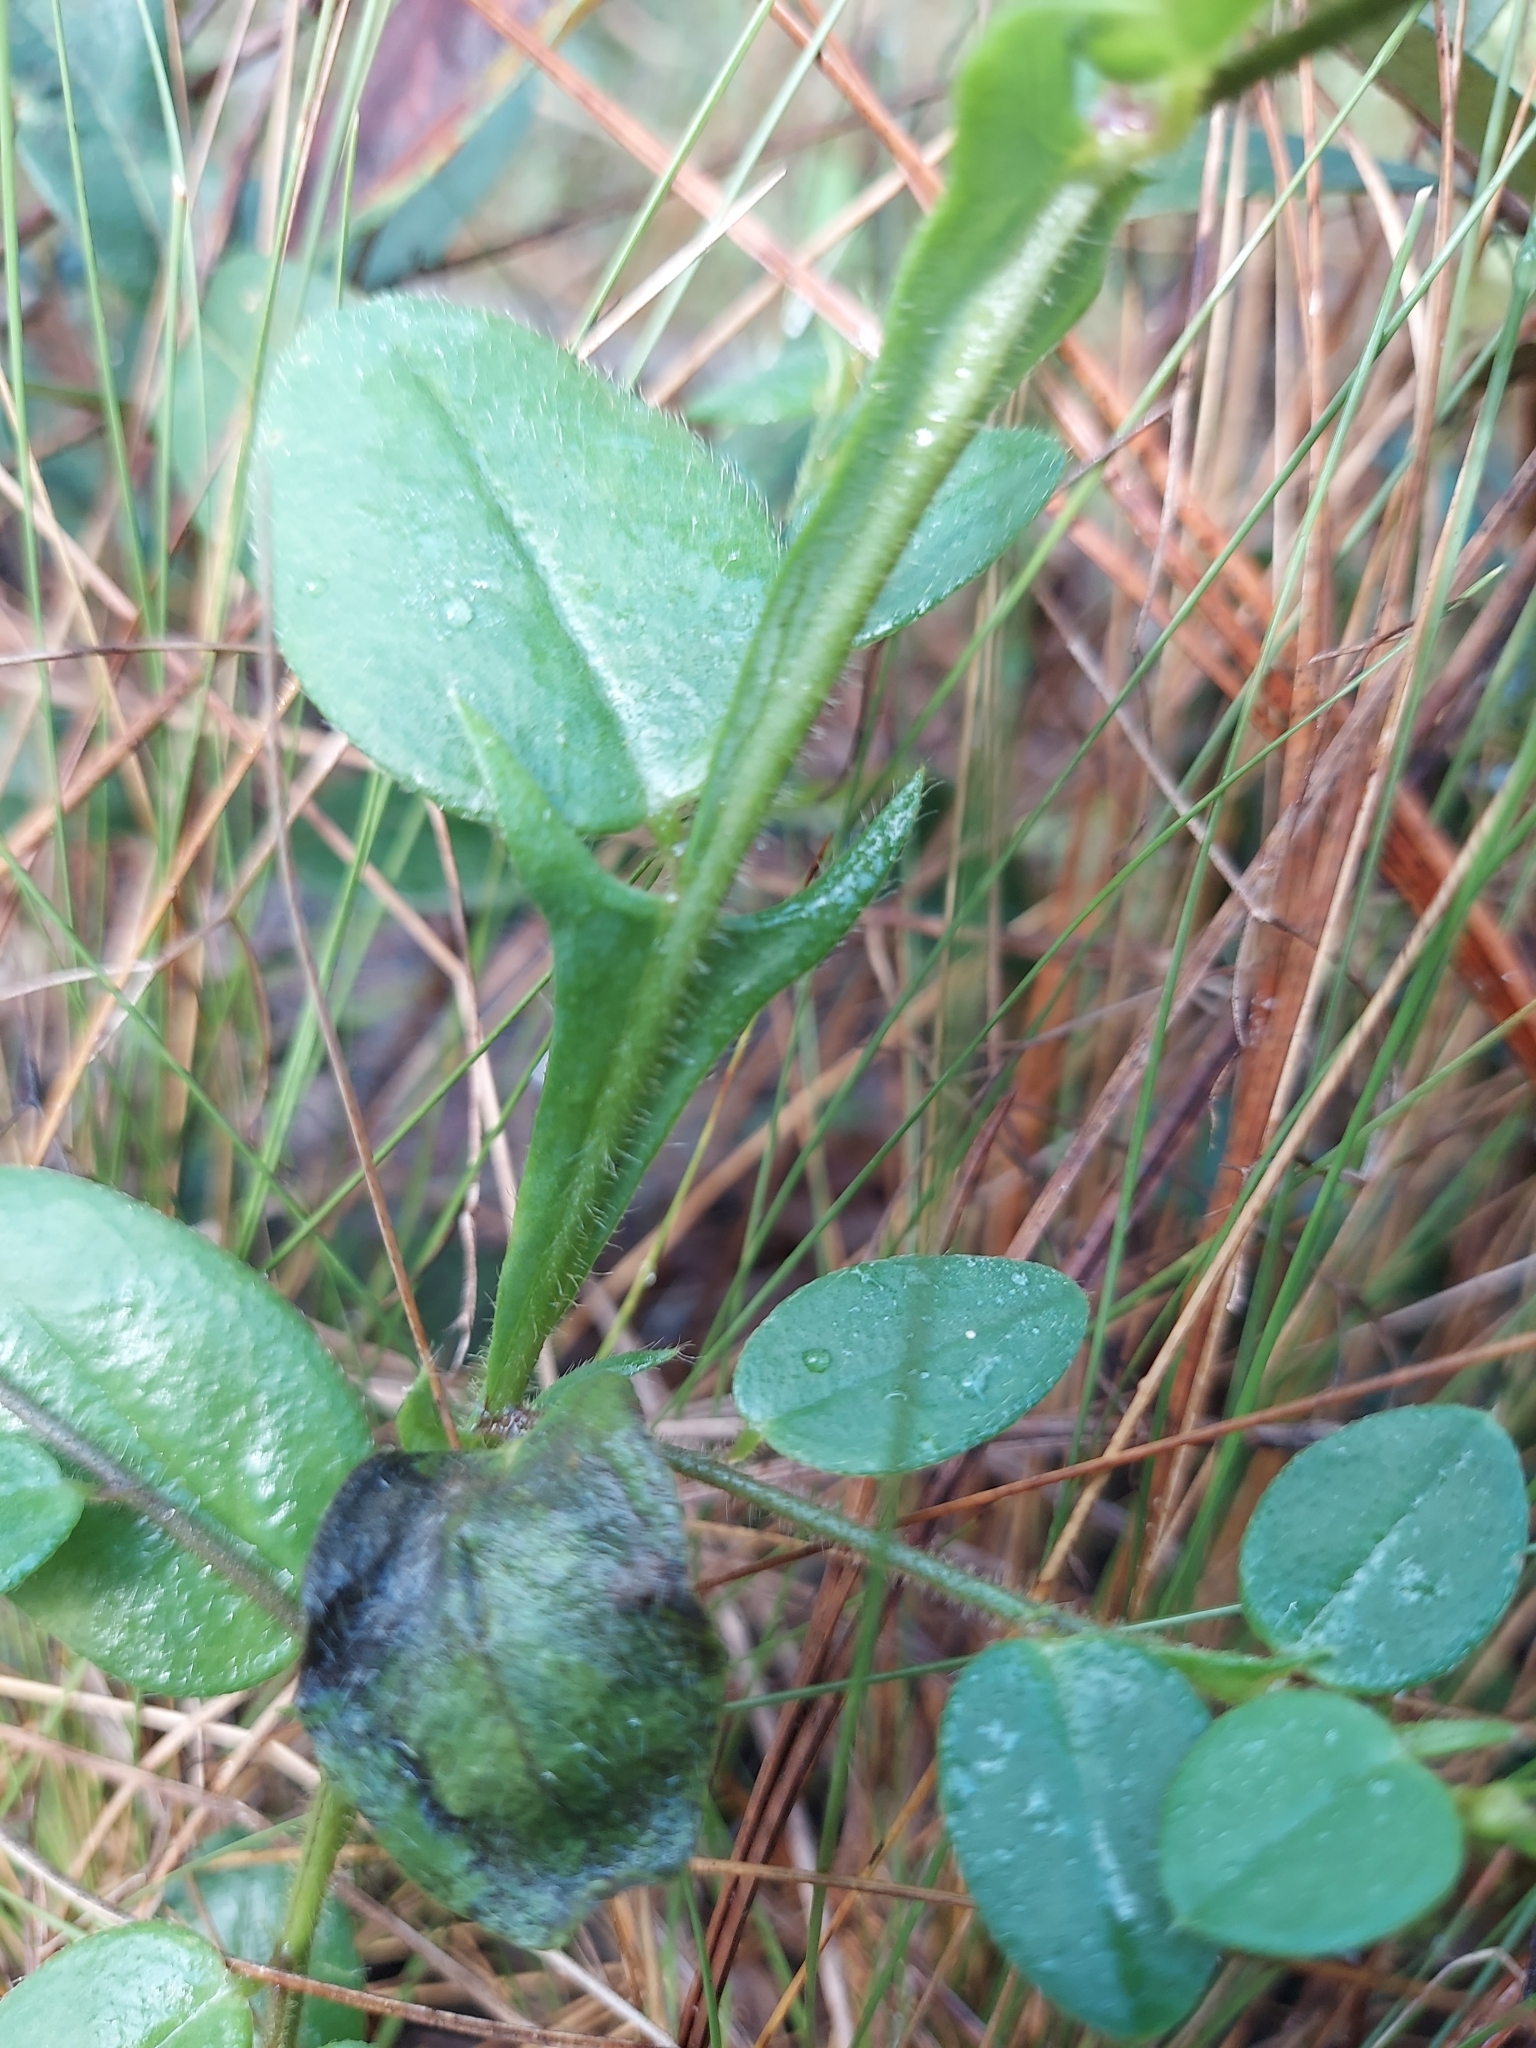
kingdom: Plantae
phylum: Tracheophyta
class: Magnoliopsida
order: Fabales
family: Fabaceae
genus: Crotalaria
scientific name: Crotalaria rotundifolia
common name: Prostrate rattlebox
